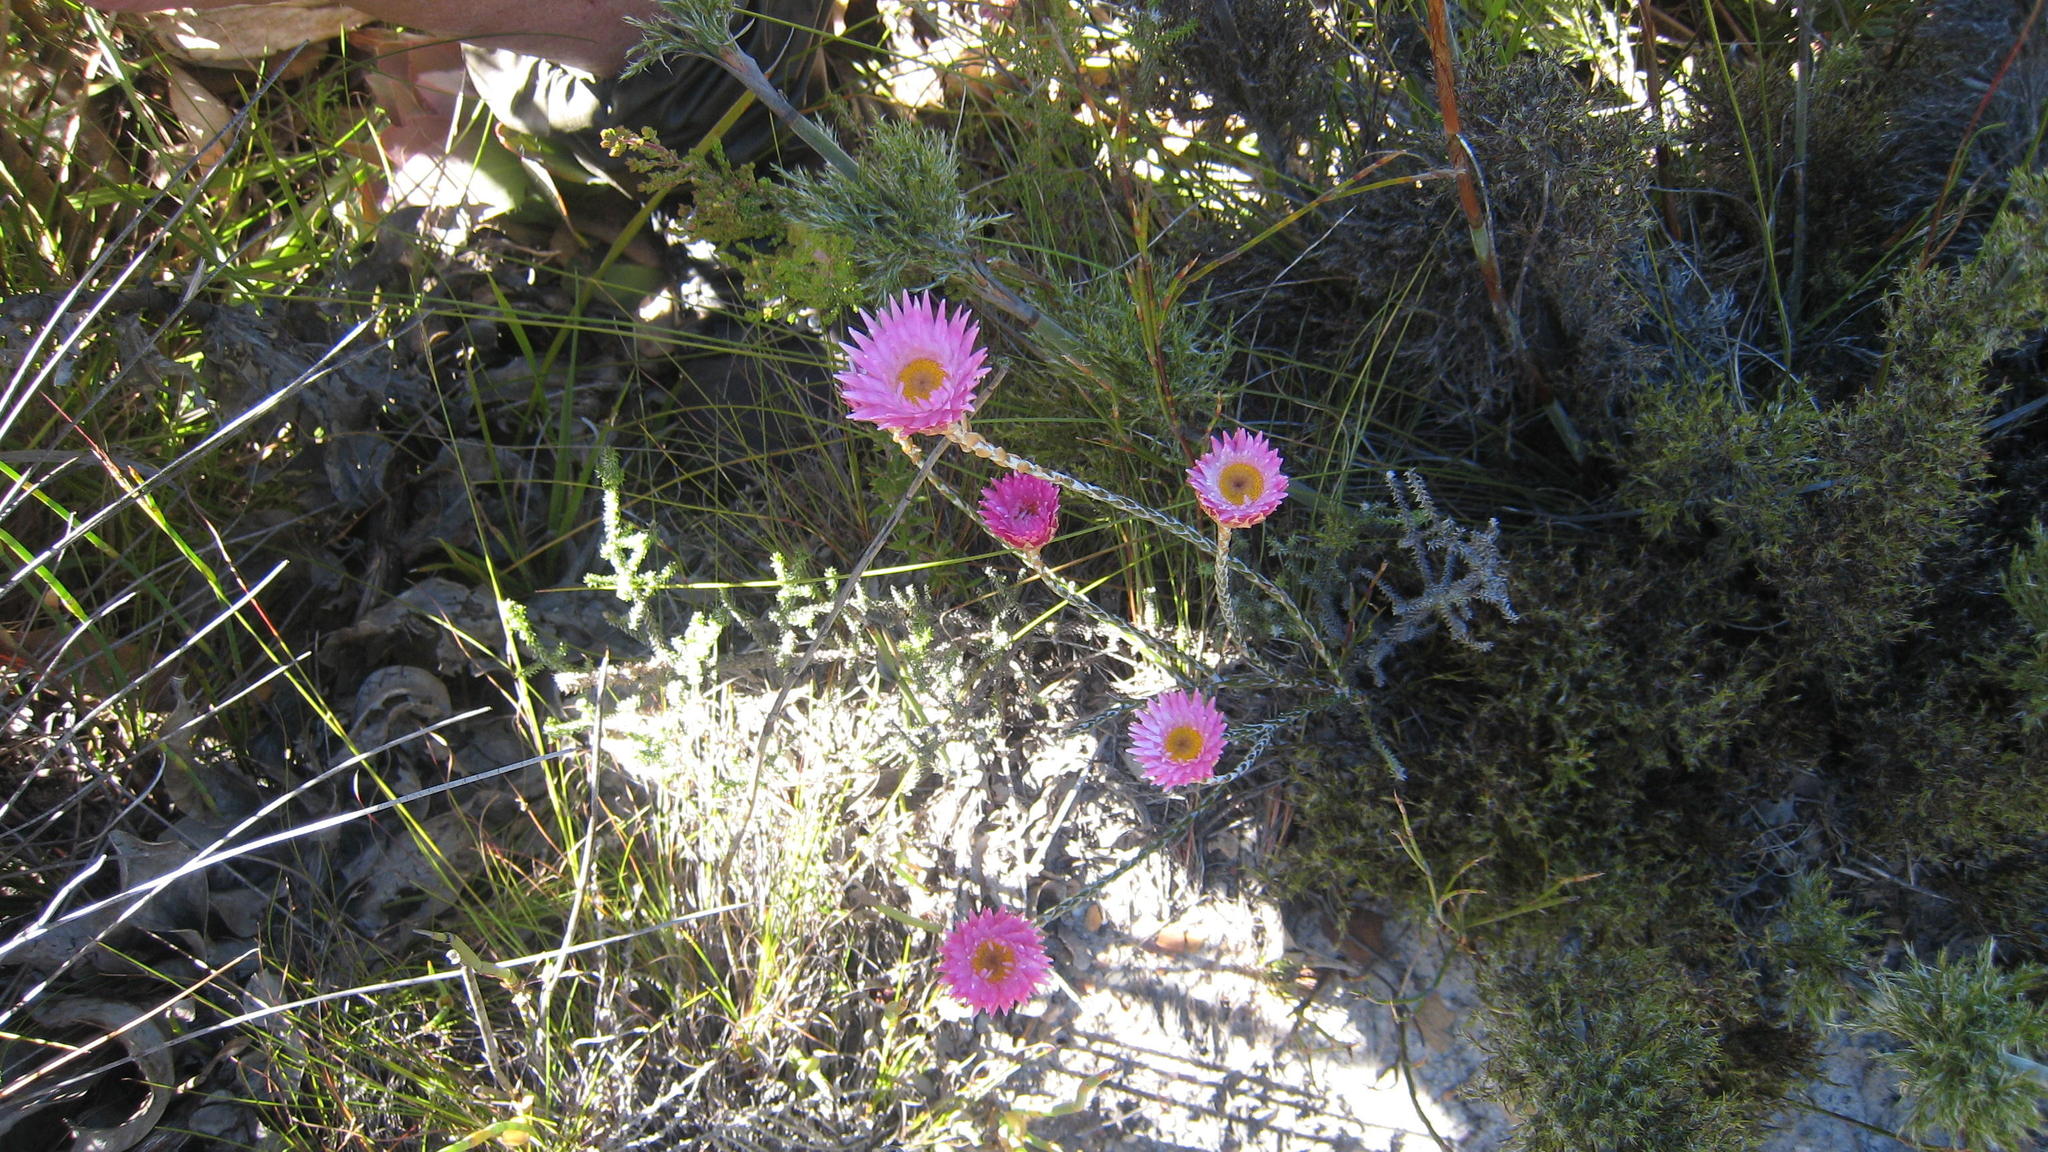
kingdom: Plantae
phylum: Tracheophyta
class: Magnoliopsida
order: Asterales
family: Asteraceae
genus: Edmondia
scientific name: Edmondia pinifolia
